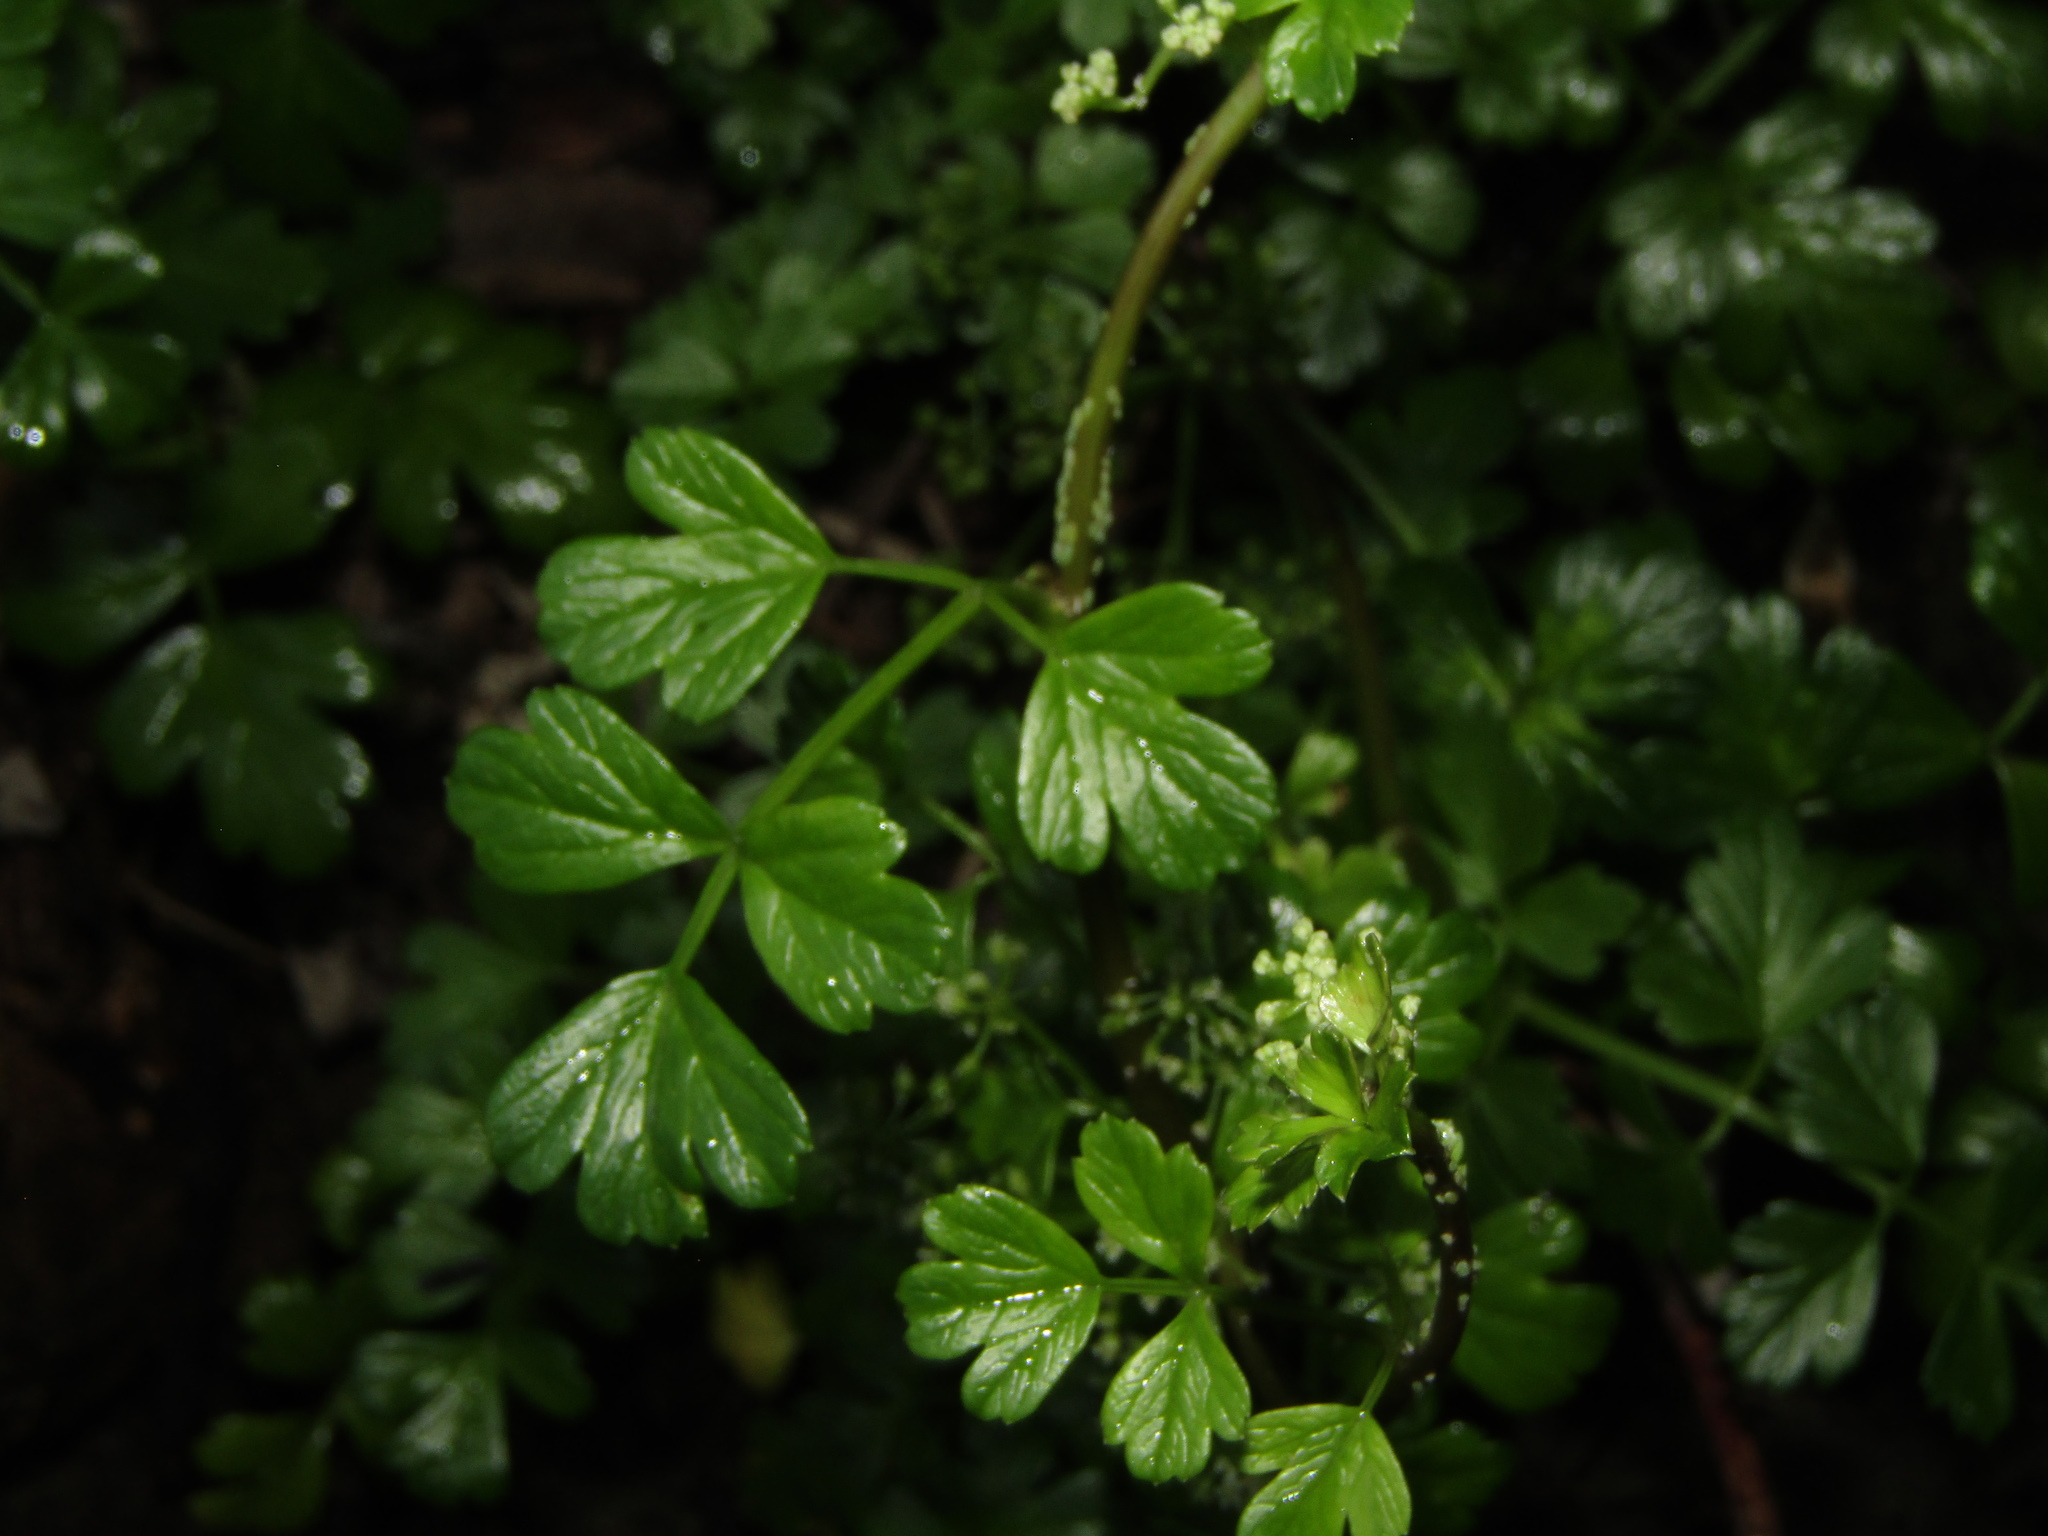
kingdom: Plantae
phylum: Tracheophyta
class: Magnoliopsida
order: Apiales
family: Apiaceae
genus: Apium
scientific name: Apium prostratum
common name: Prostrate marshwort
